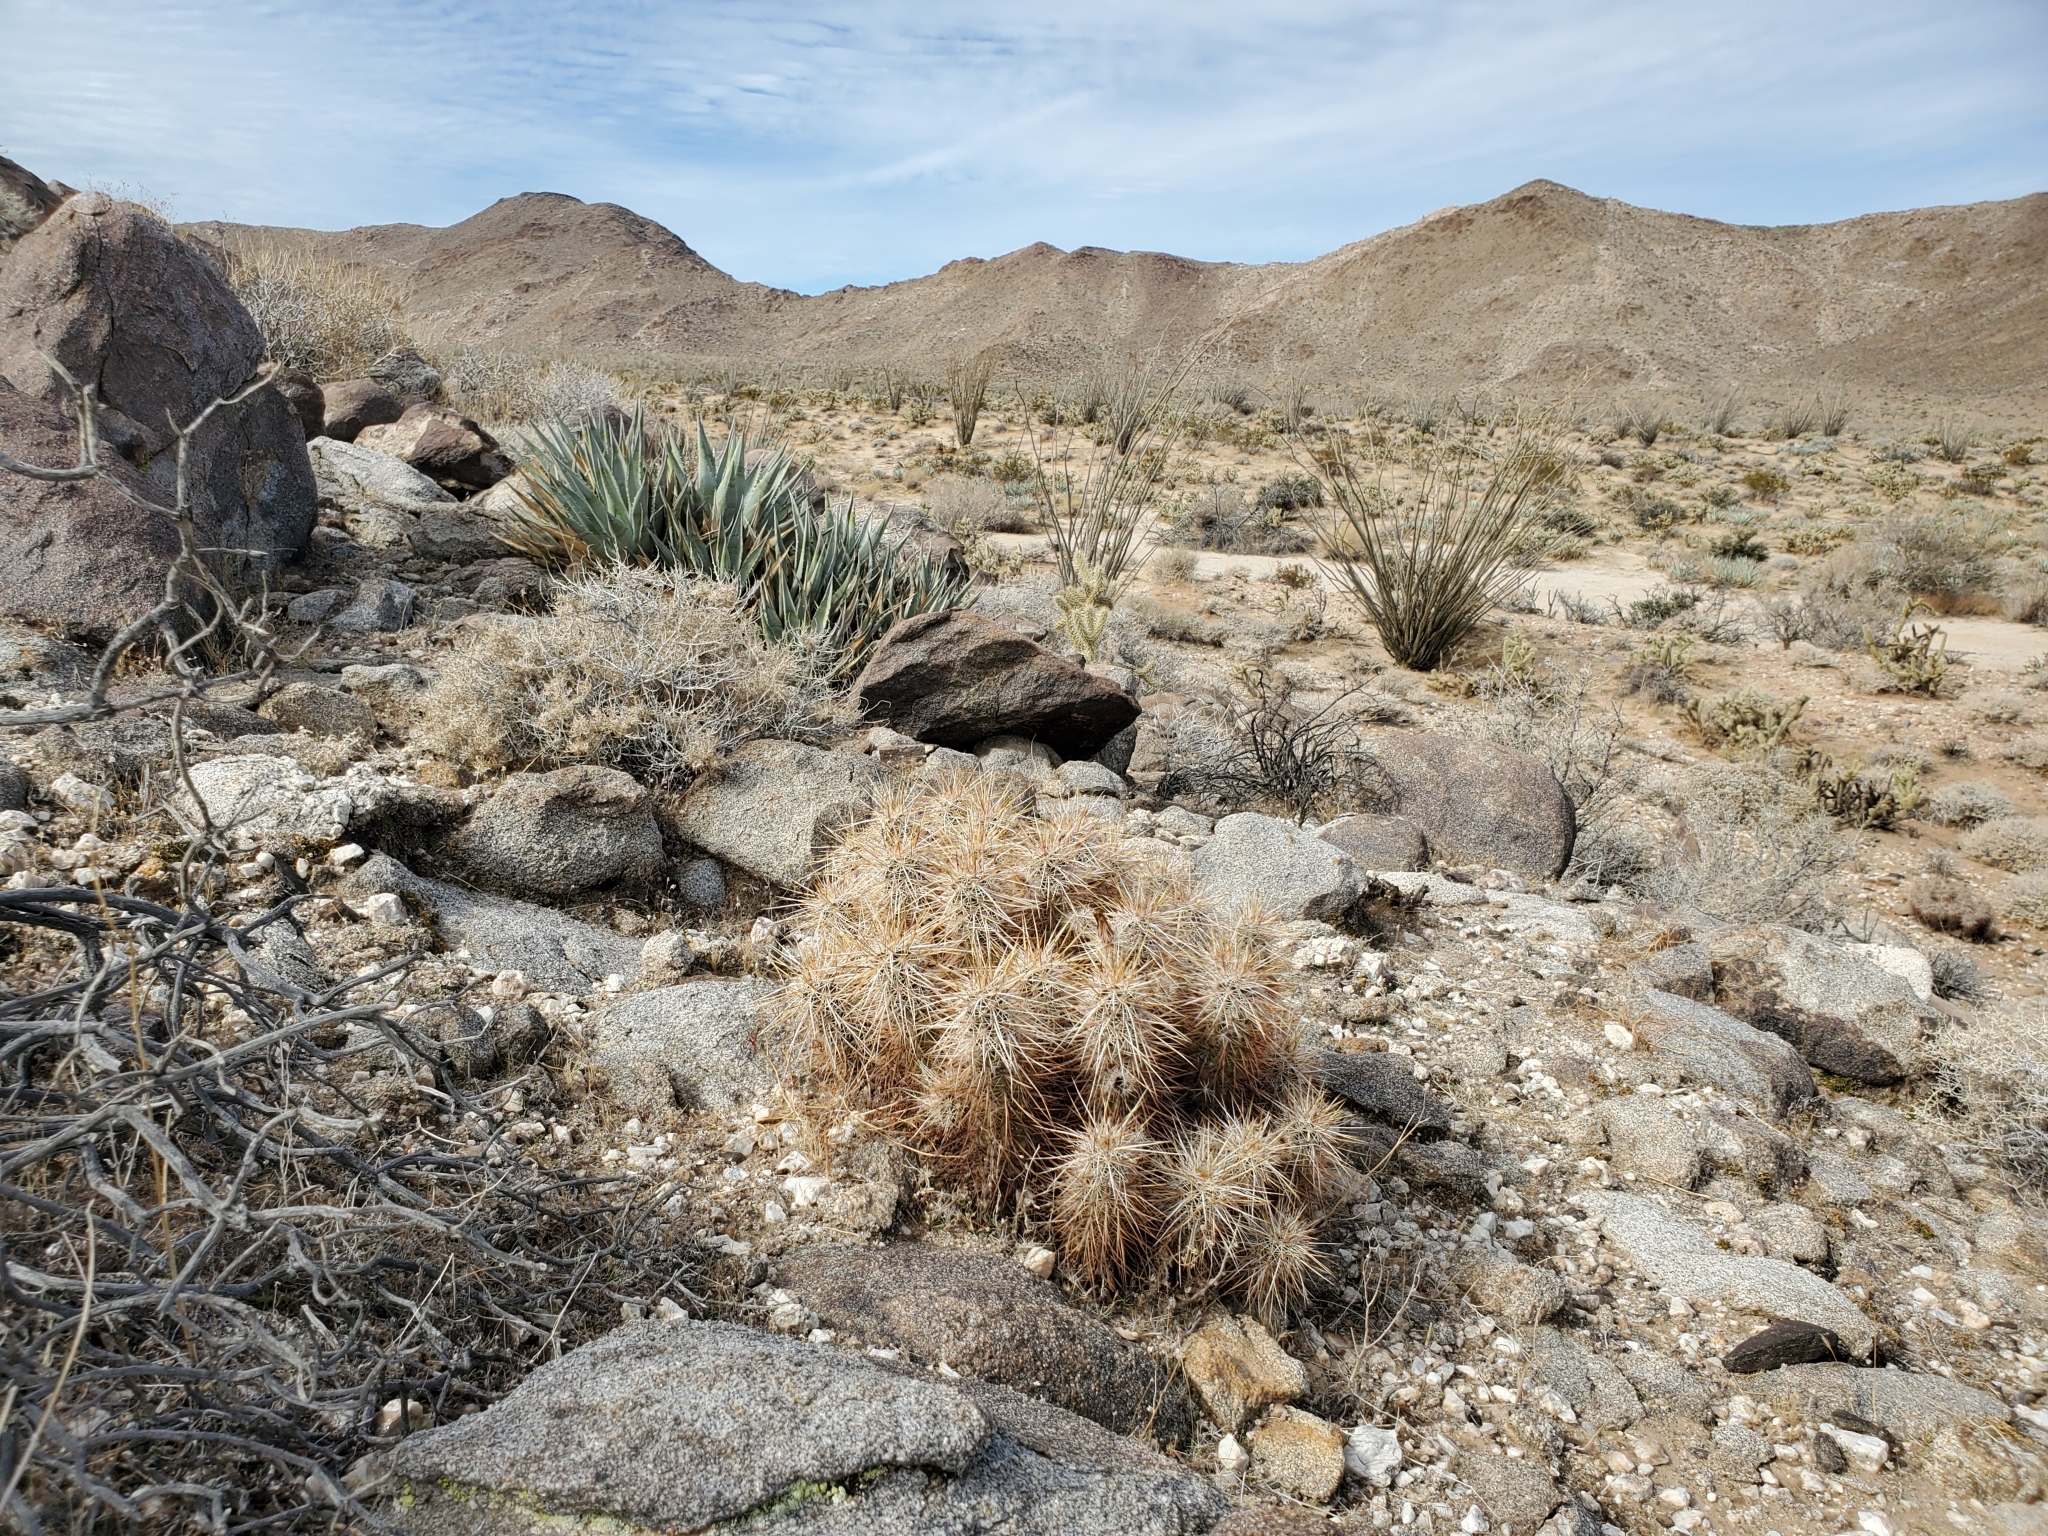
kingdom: Plantae
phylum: Tracheophyta
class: Magnoliopsida
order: Caryophyllales
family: Cactaceae
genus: Echinocereus
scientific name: Echinocereus engelmannii
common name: Engelmann's hedgehog cactus
